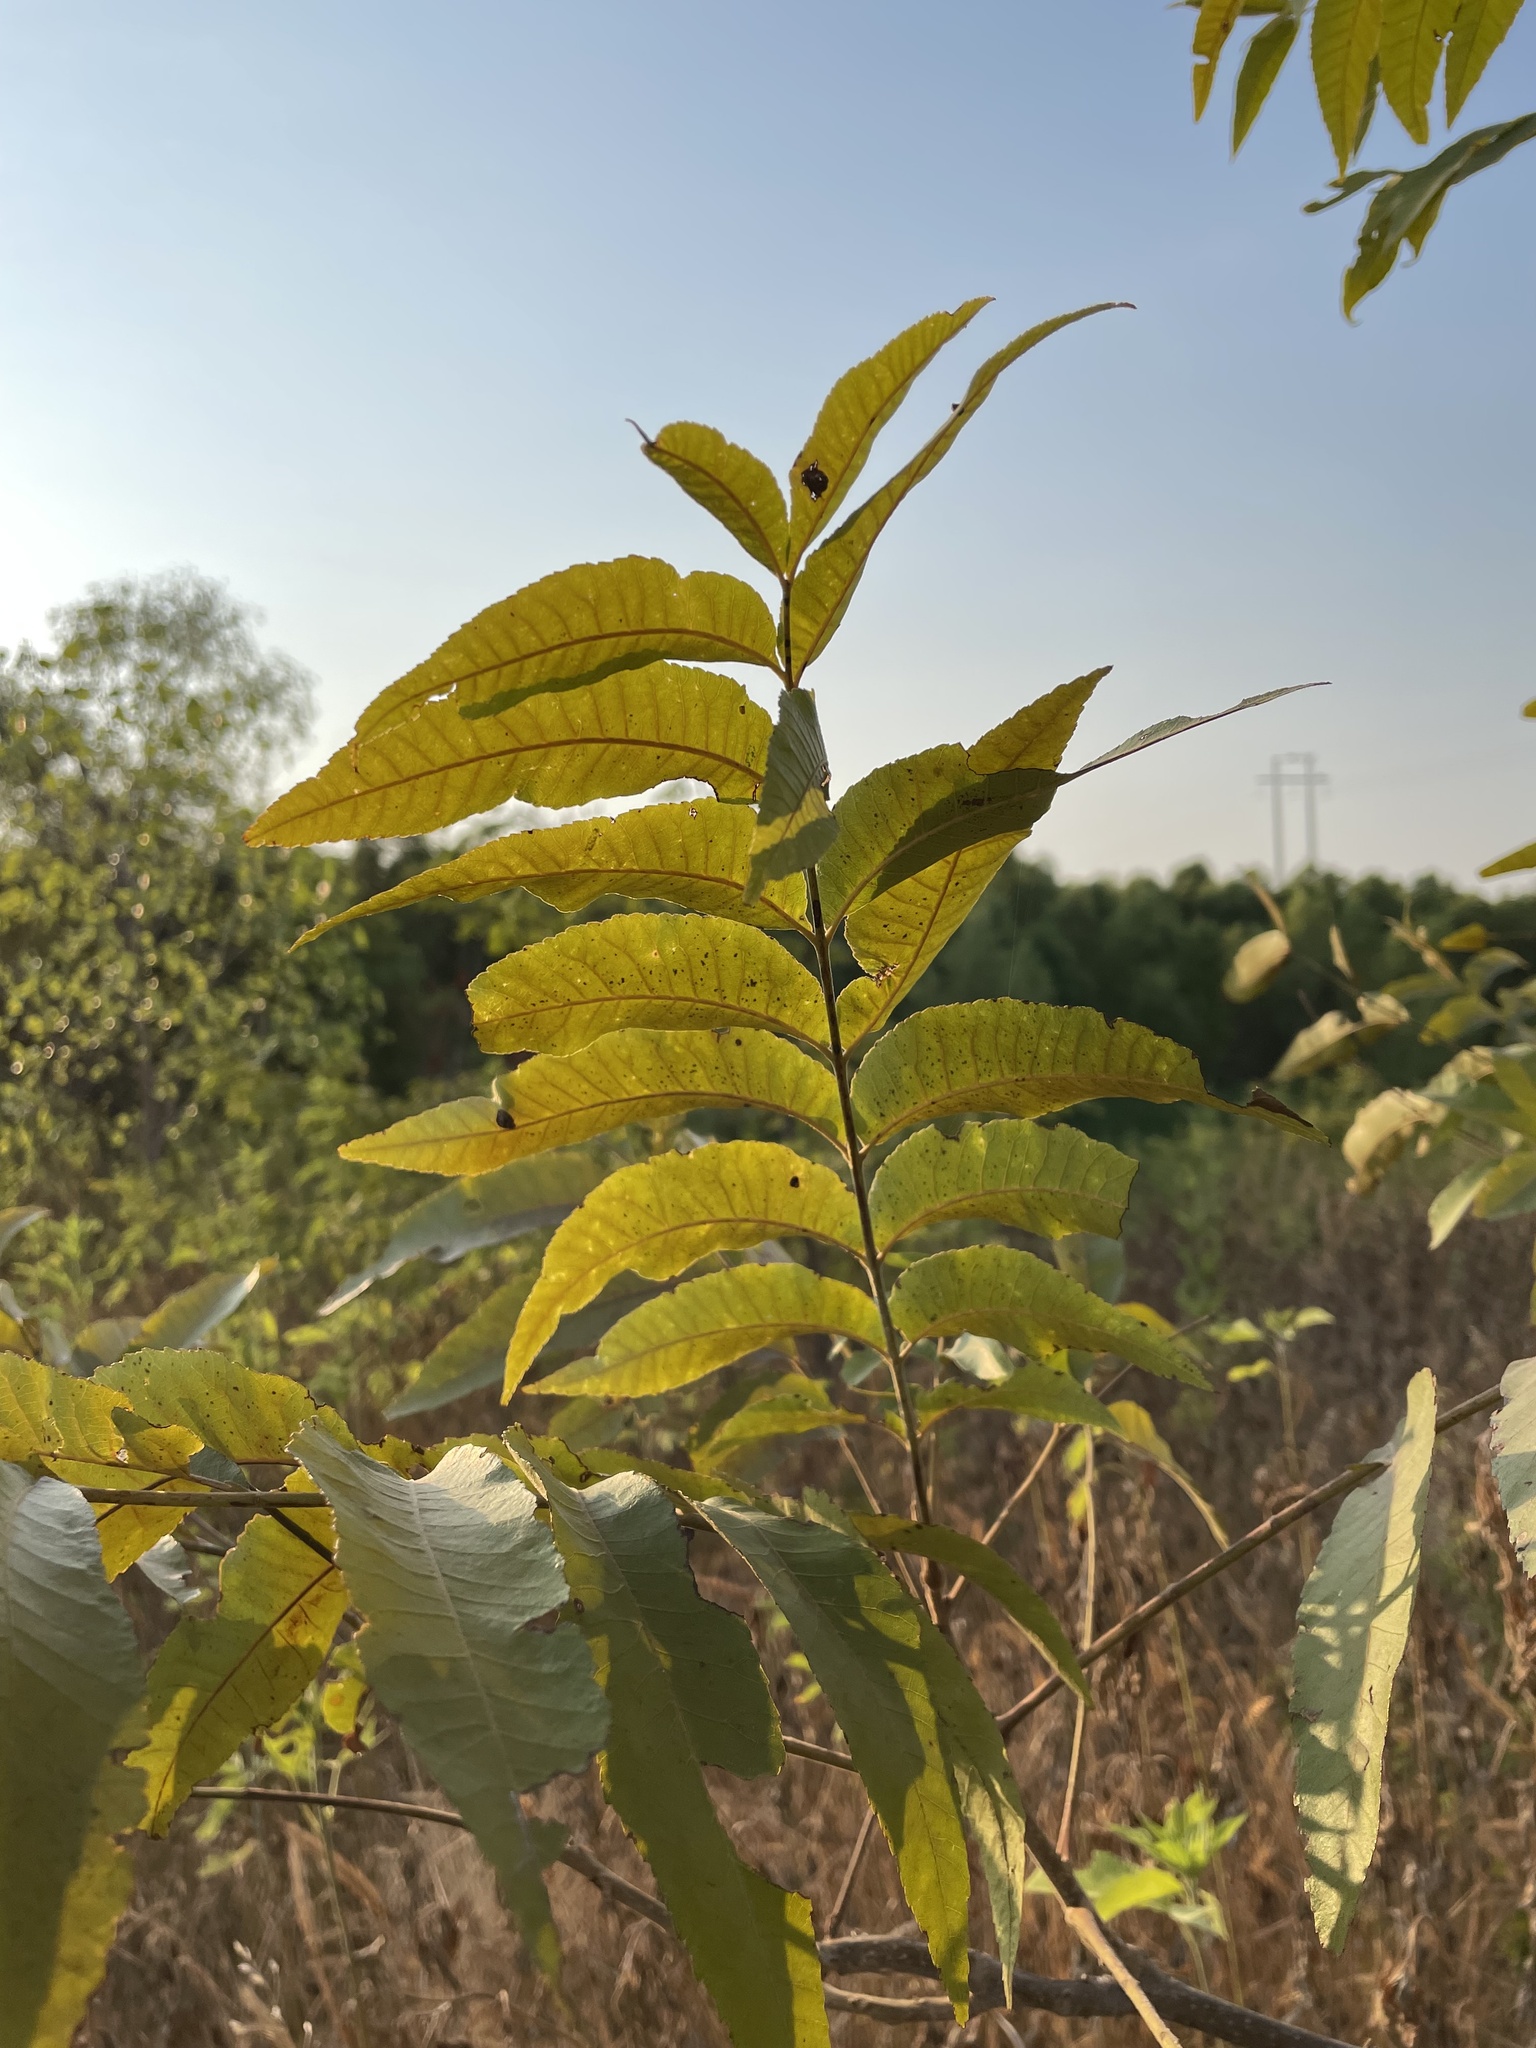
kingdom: Plantae
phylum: Tracheophyta
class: Magnoliopsida
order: Fagales
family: Juglandaceae
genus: Carya
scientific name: Carya illinoinensis
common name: Pecan
